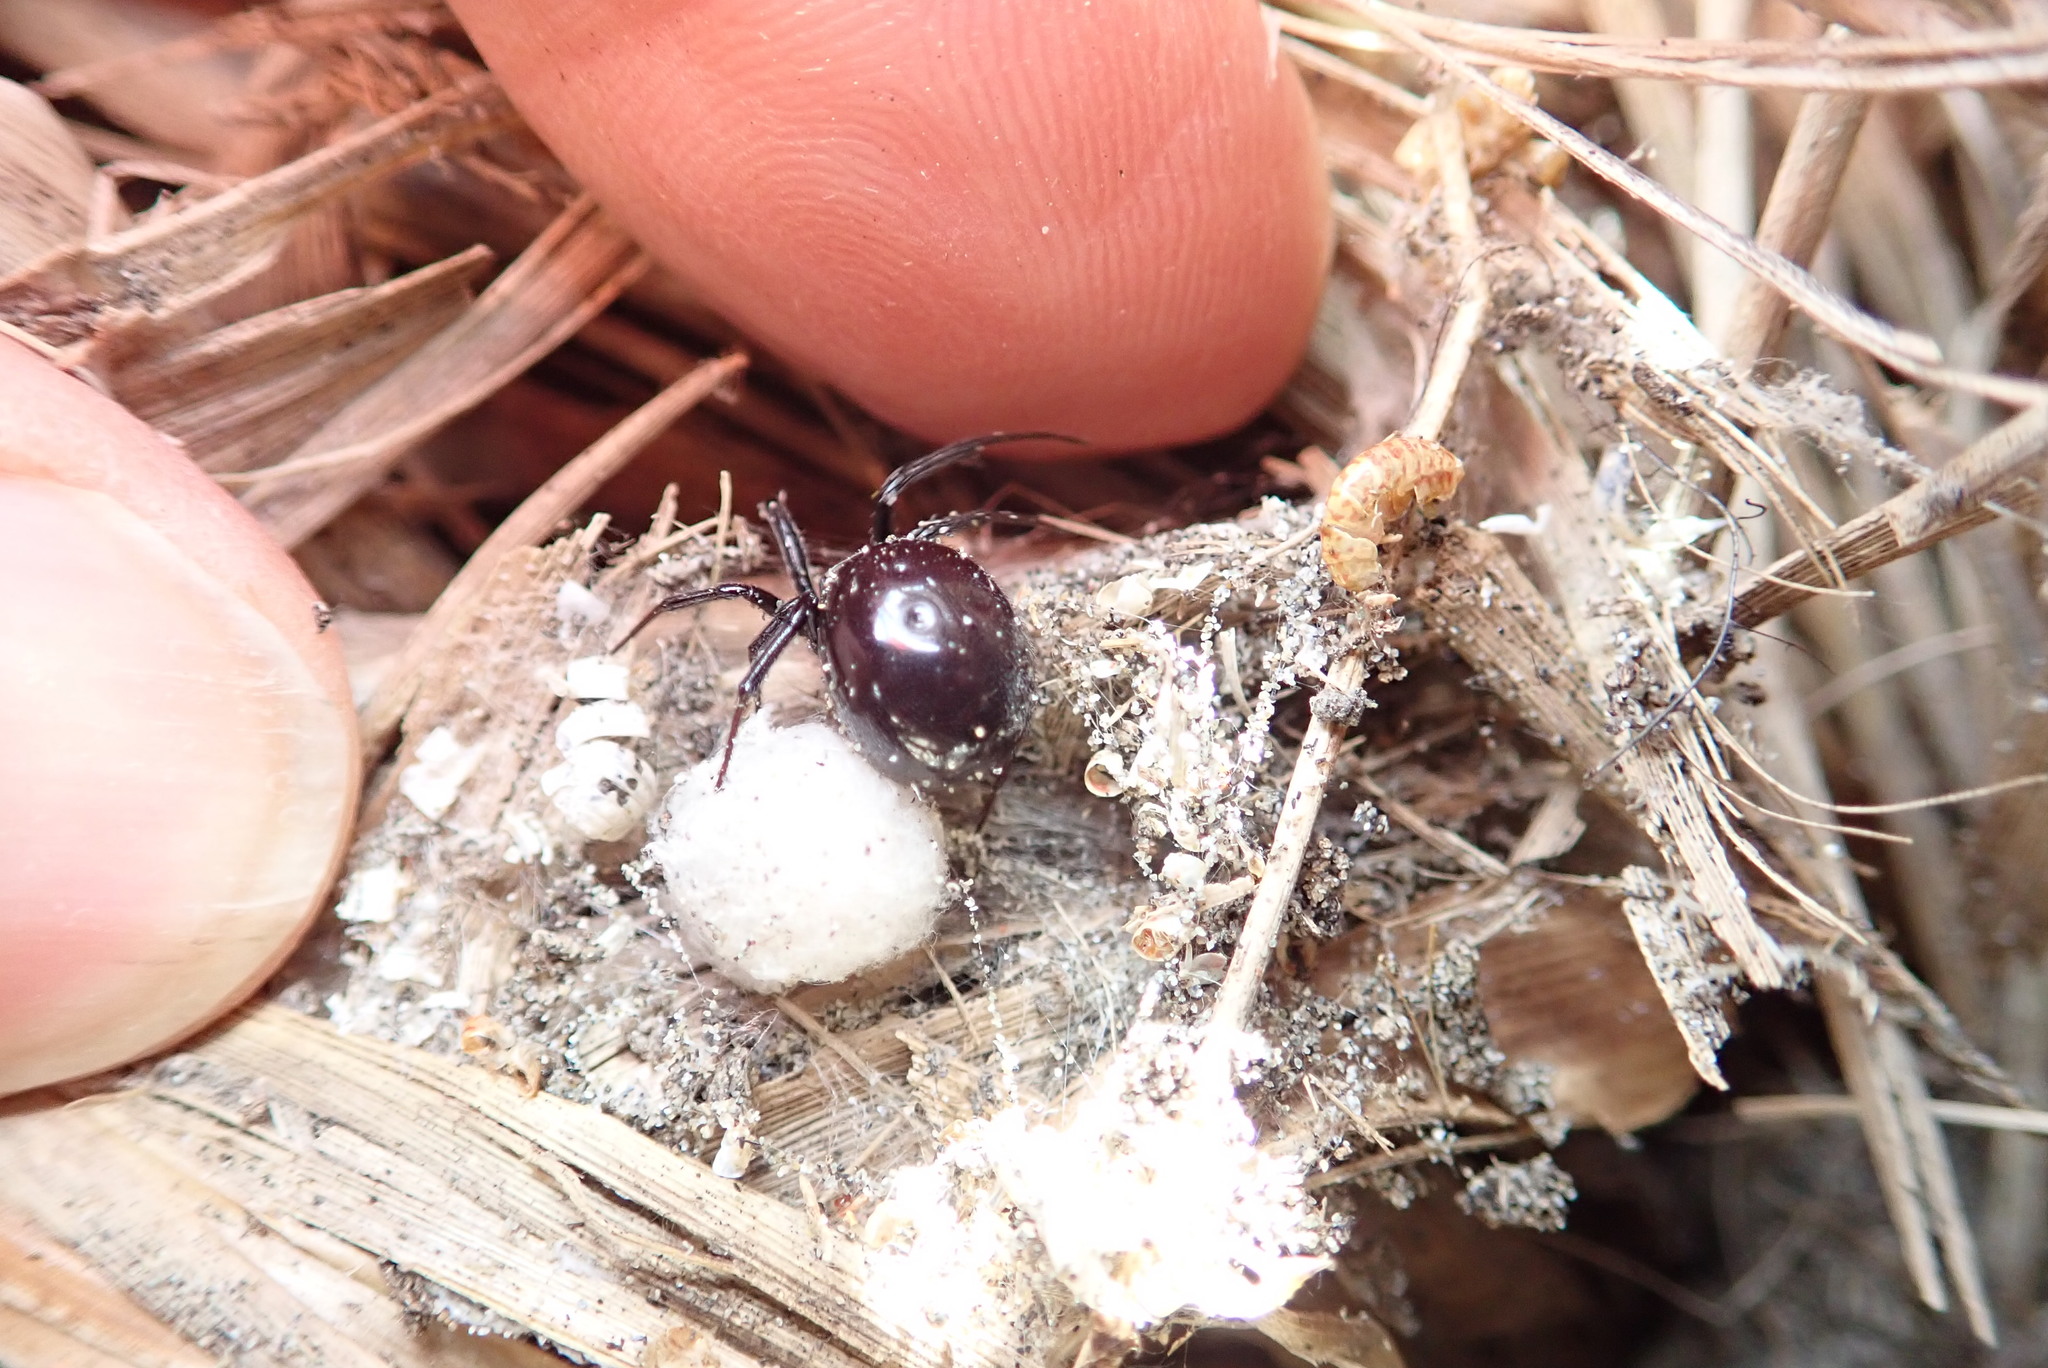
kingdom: Animalia
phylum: Arthropoda
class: Arachnida
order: Araneae
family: Theridiidae
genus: Steatoda
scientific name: Steatoda capensis
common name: Cobweb weaver
